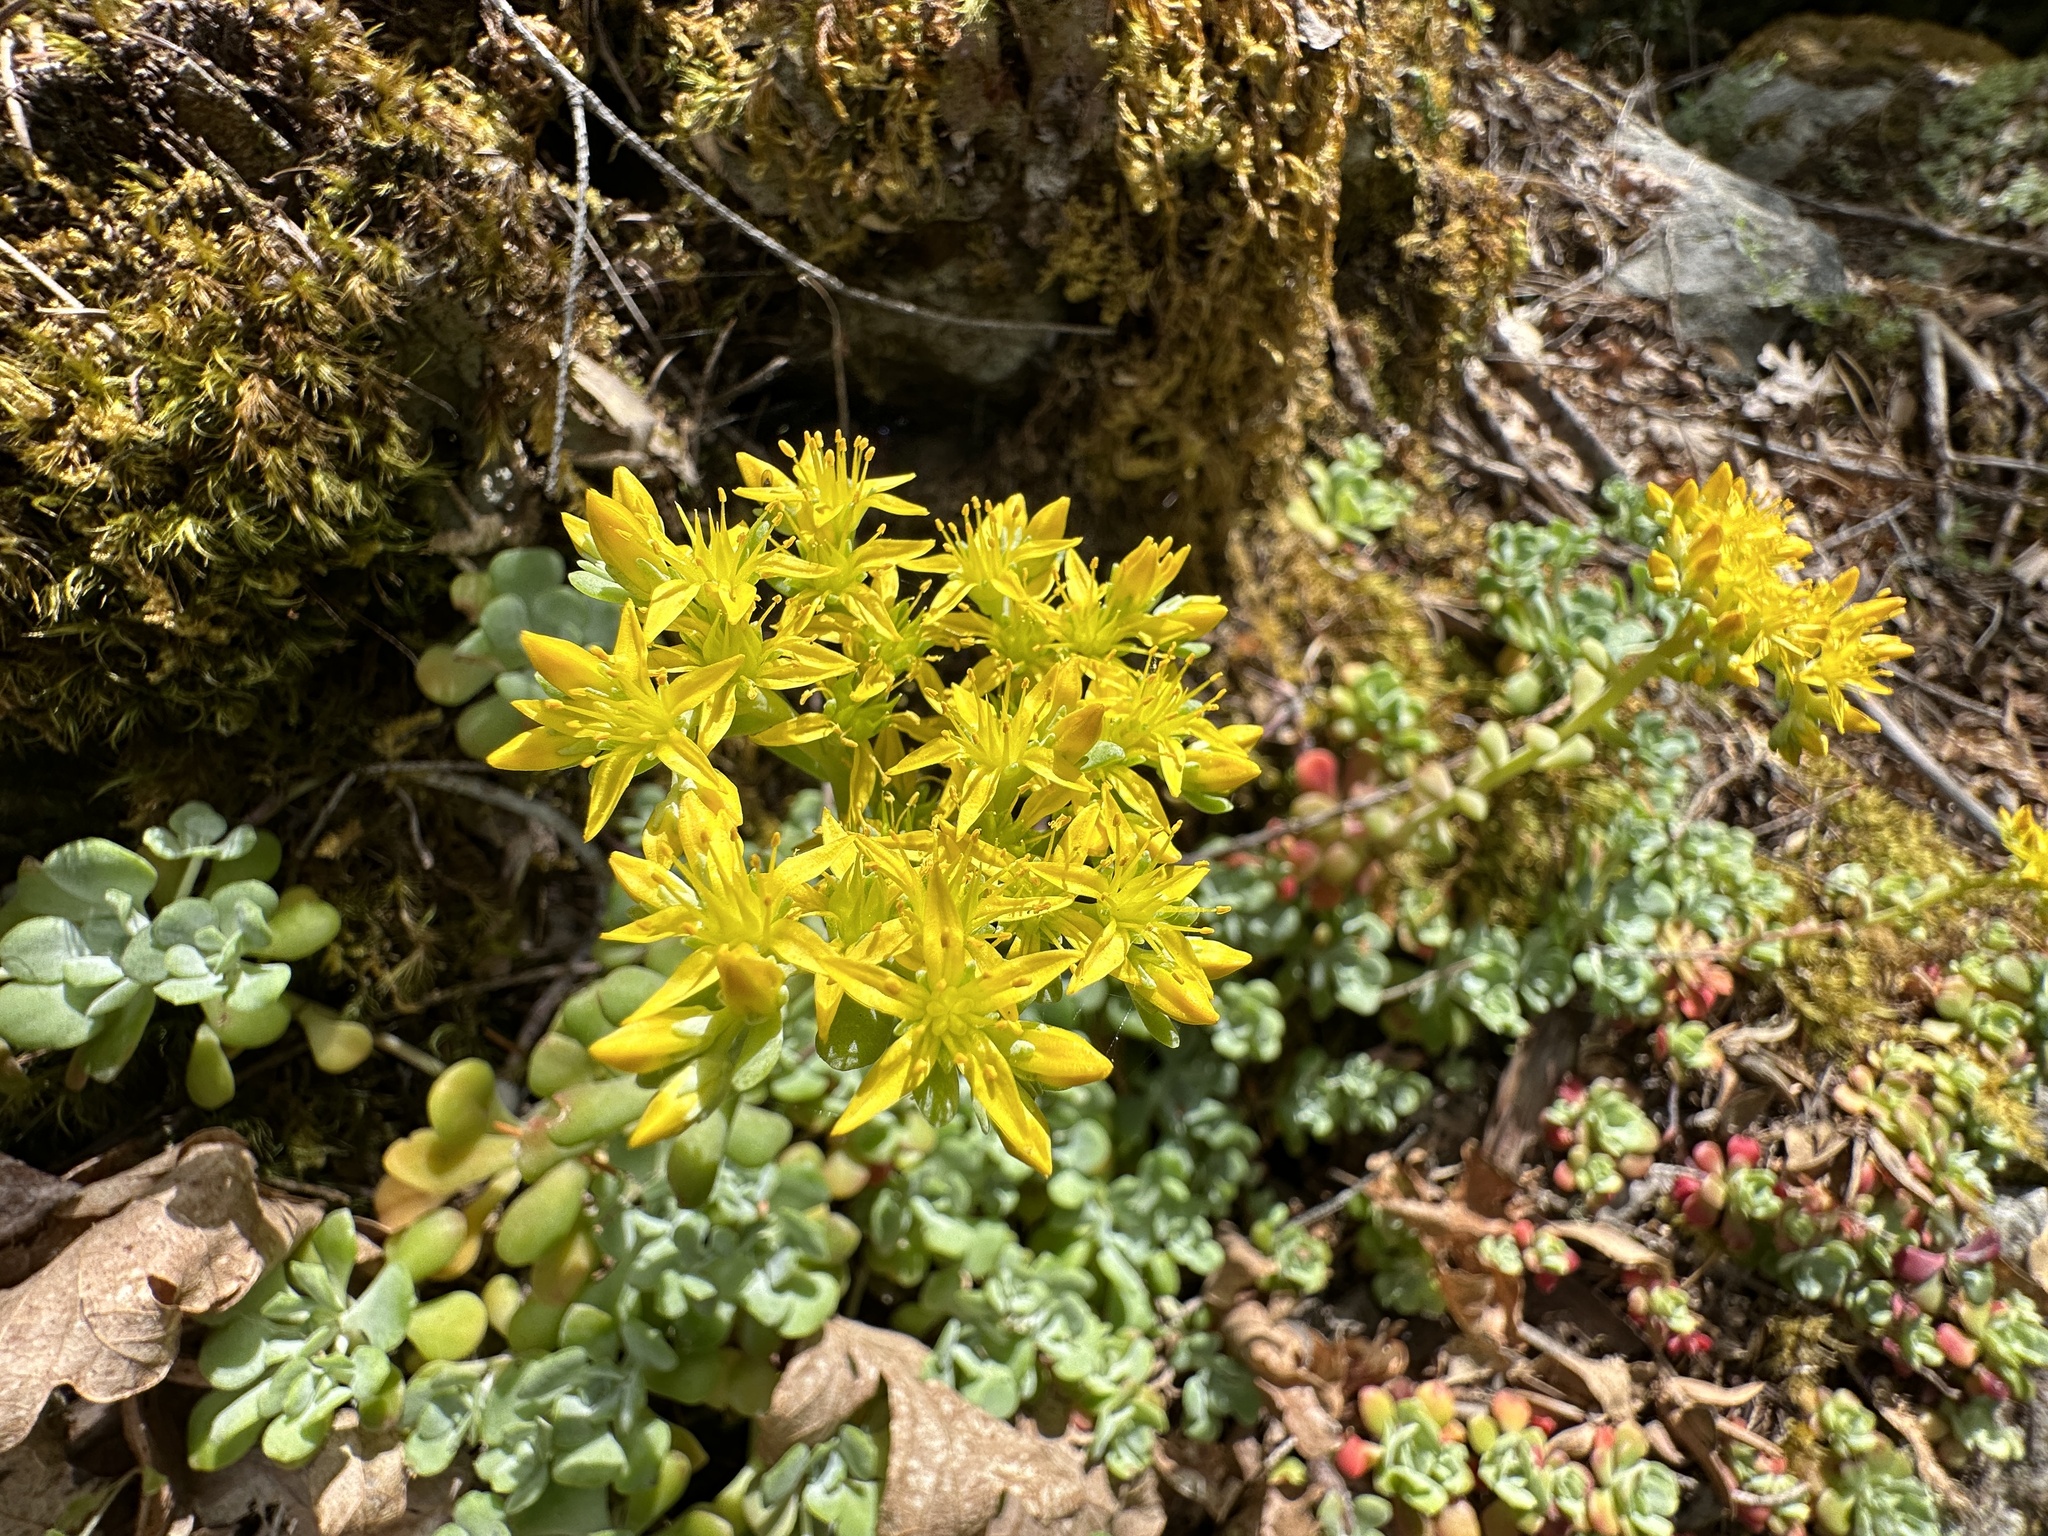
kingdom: Plantae
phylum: Tracheophyta
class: Magnoliopsida
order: Saxifragales
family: Crassulaceae
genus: Sedum
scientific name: Sedum spathulifolium
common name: Colorado stonecrop
